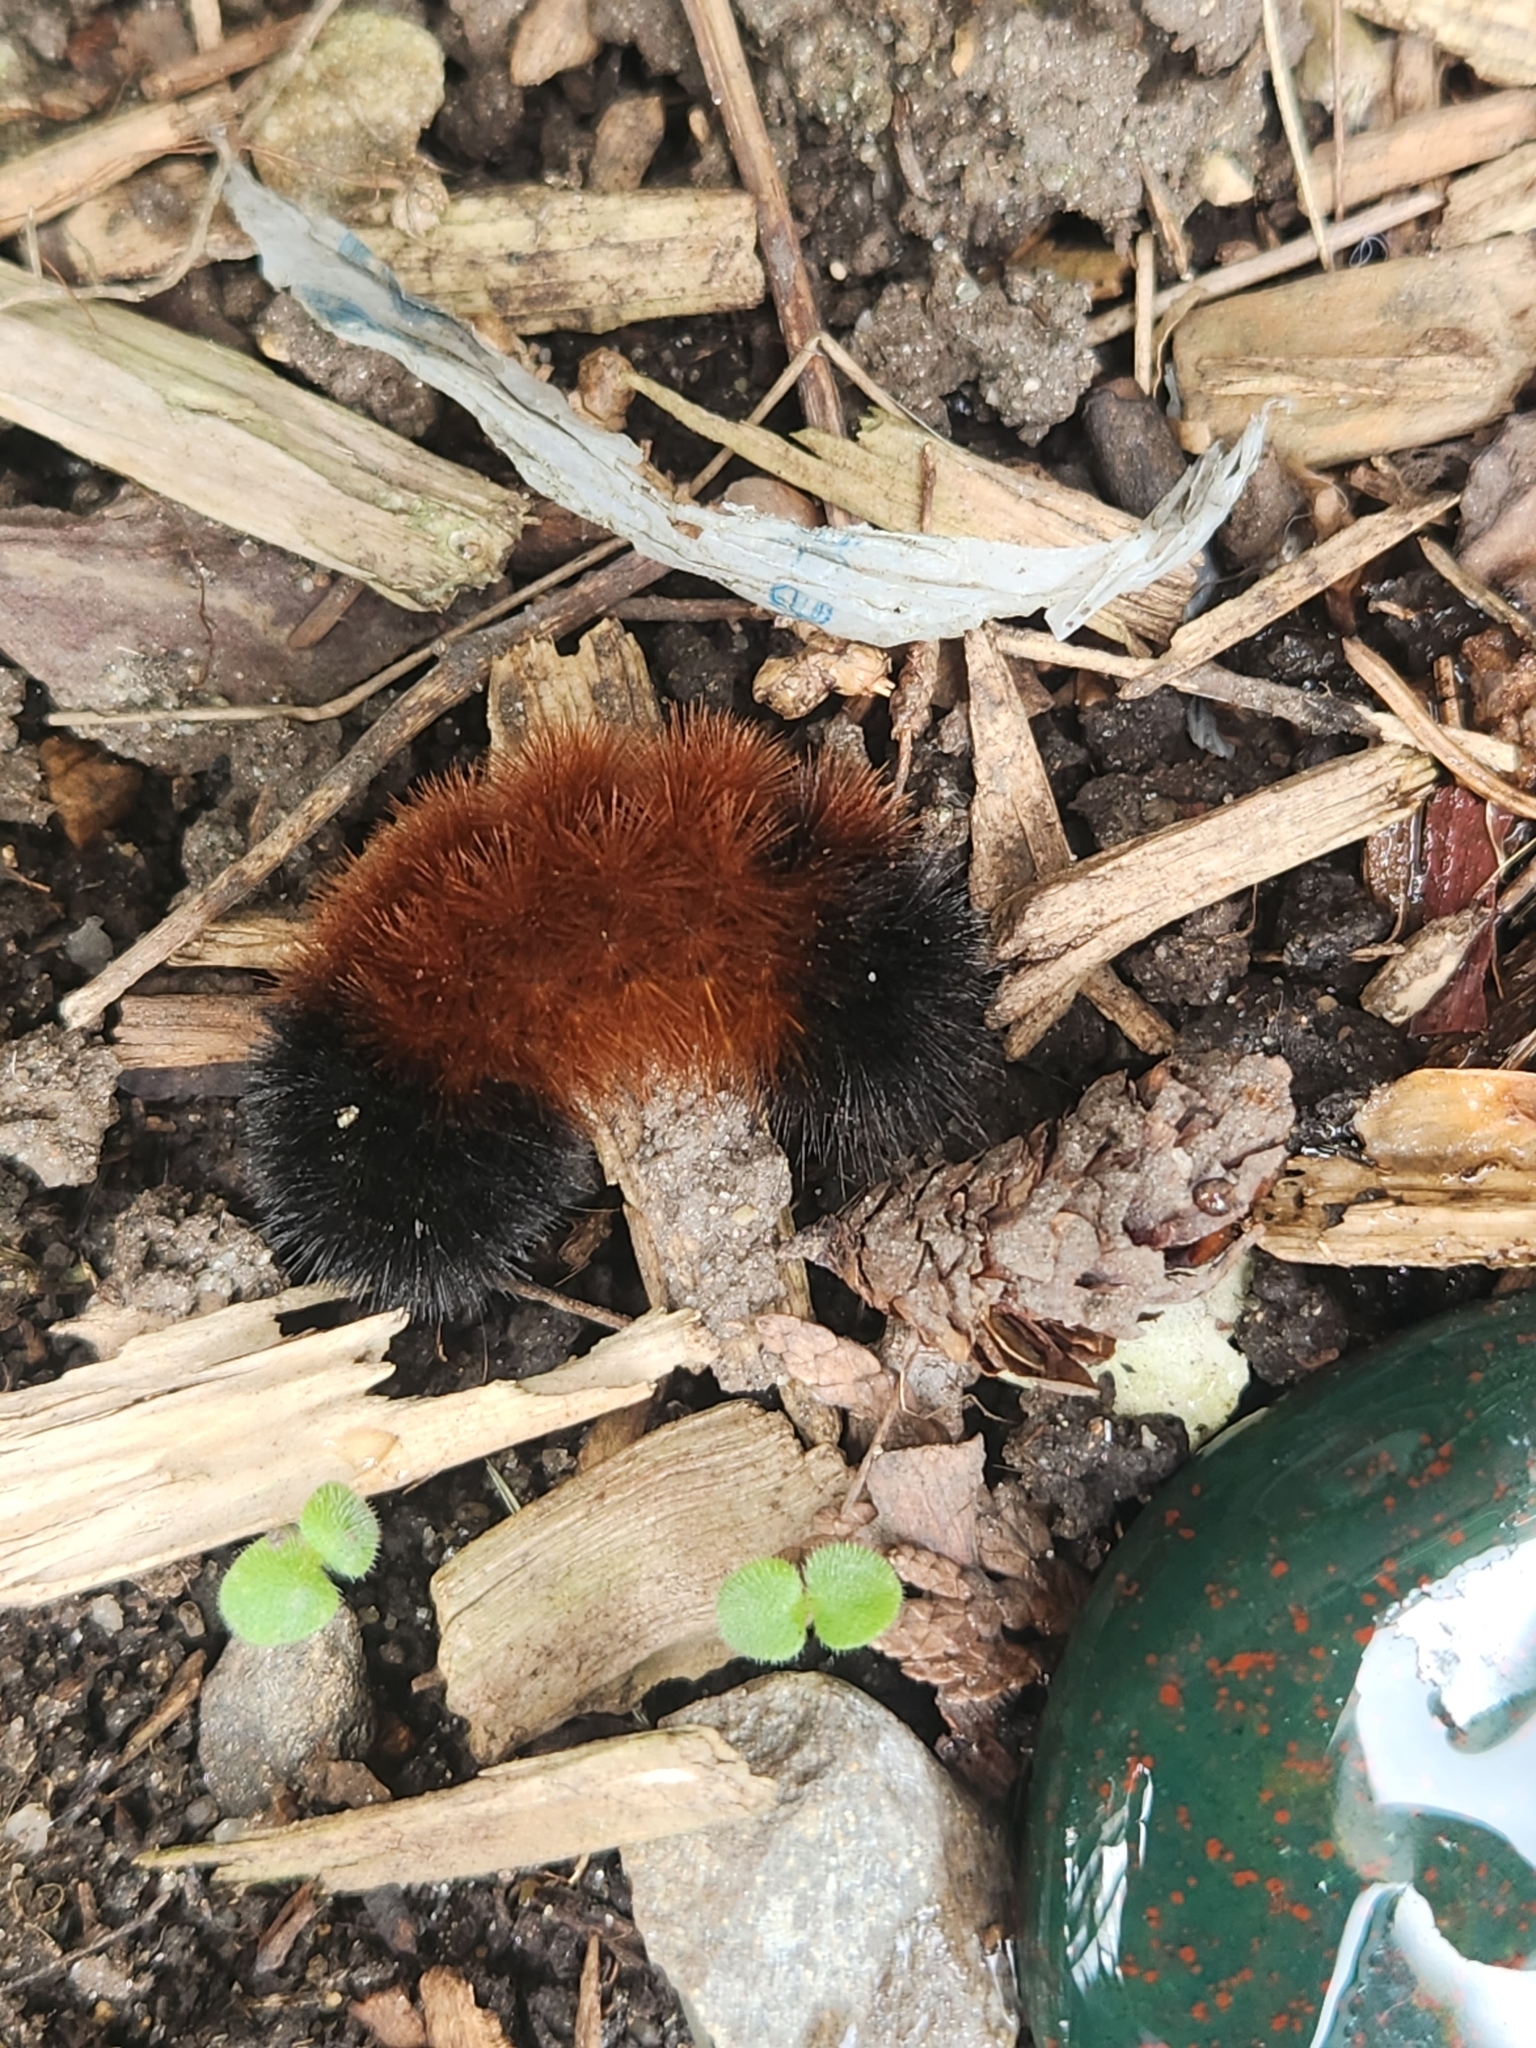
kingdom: Animalia
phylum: Arthropoda
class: Insecta
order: Lepidoptera
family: Erebidae
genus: Pyrrharctia
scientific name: Pyrrharctia isabella
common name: Isabella tiger moth
